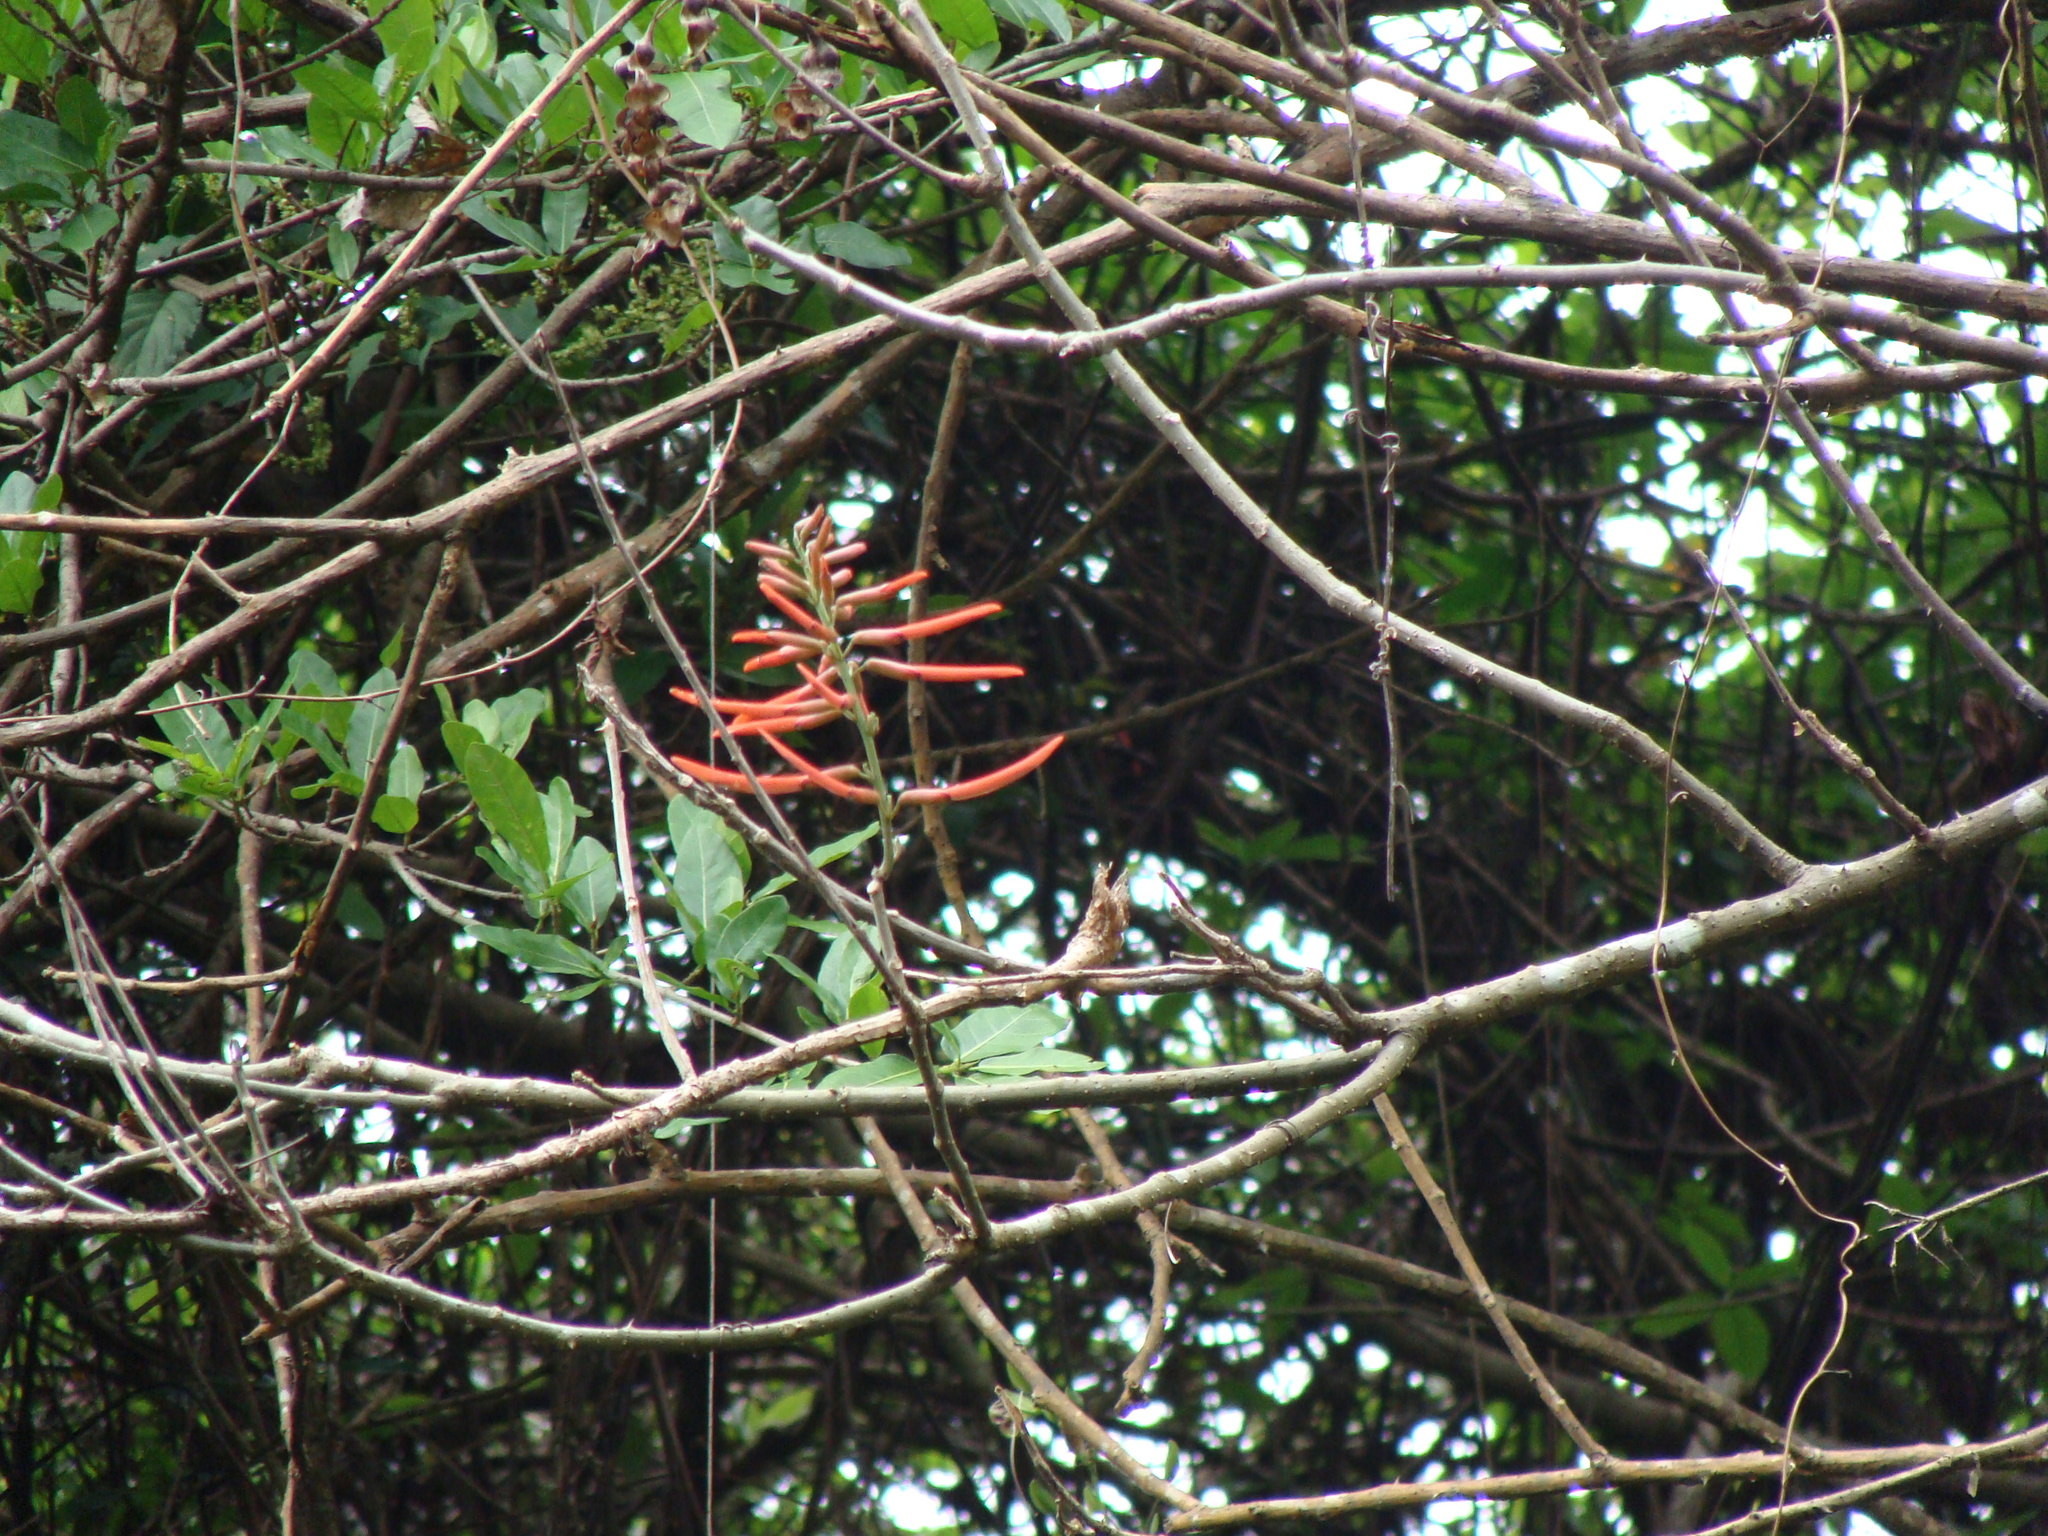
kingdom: Plantae
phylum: Tracheophyta
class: Magnoliopsida
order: Fabales
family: Fabaceae
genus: Erythrina
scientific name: Erythrina mexicana
